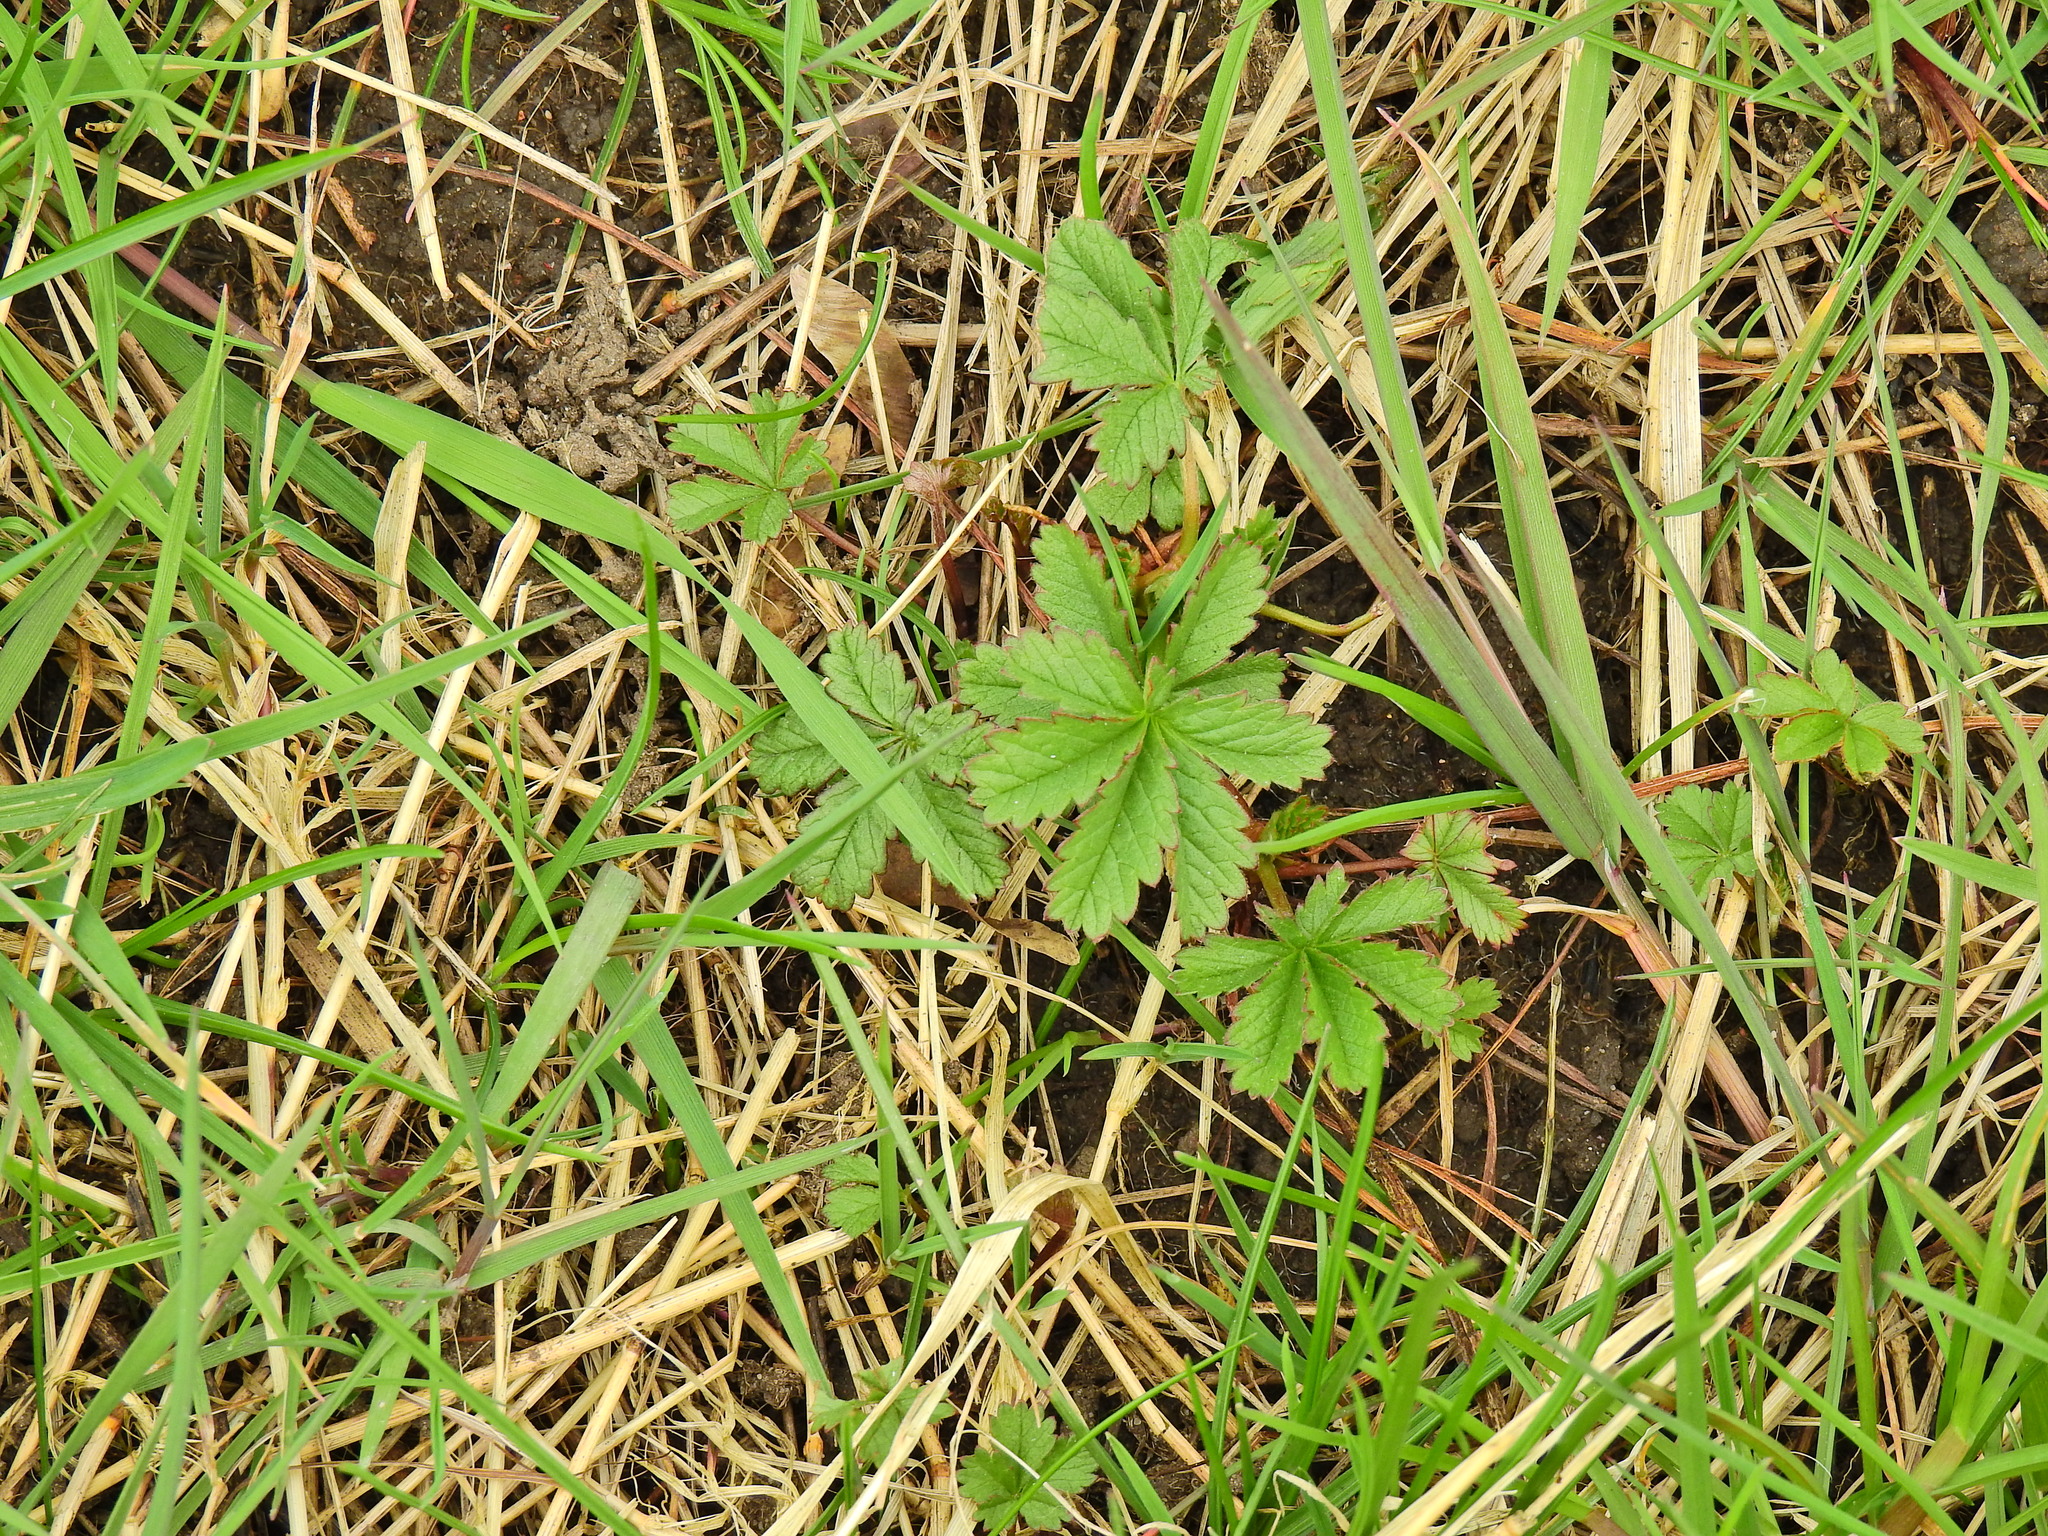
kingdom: Plantae
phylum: Tracheophyta
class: Magnoliopsida
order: Rosales
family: Rosaceae
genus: Potentilla
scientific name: Potentilla reptans
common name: Creeping cinquefoil
